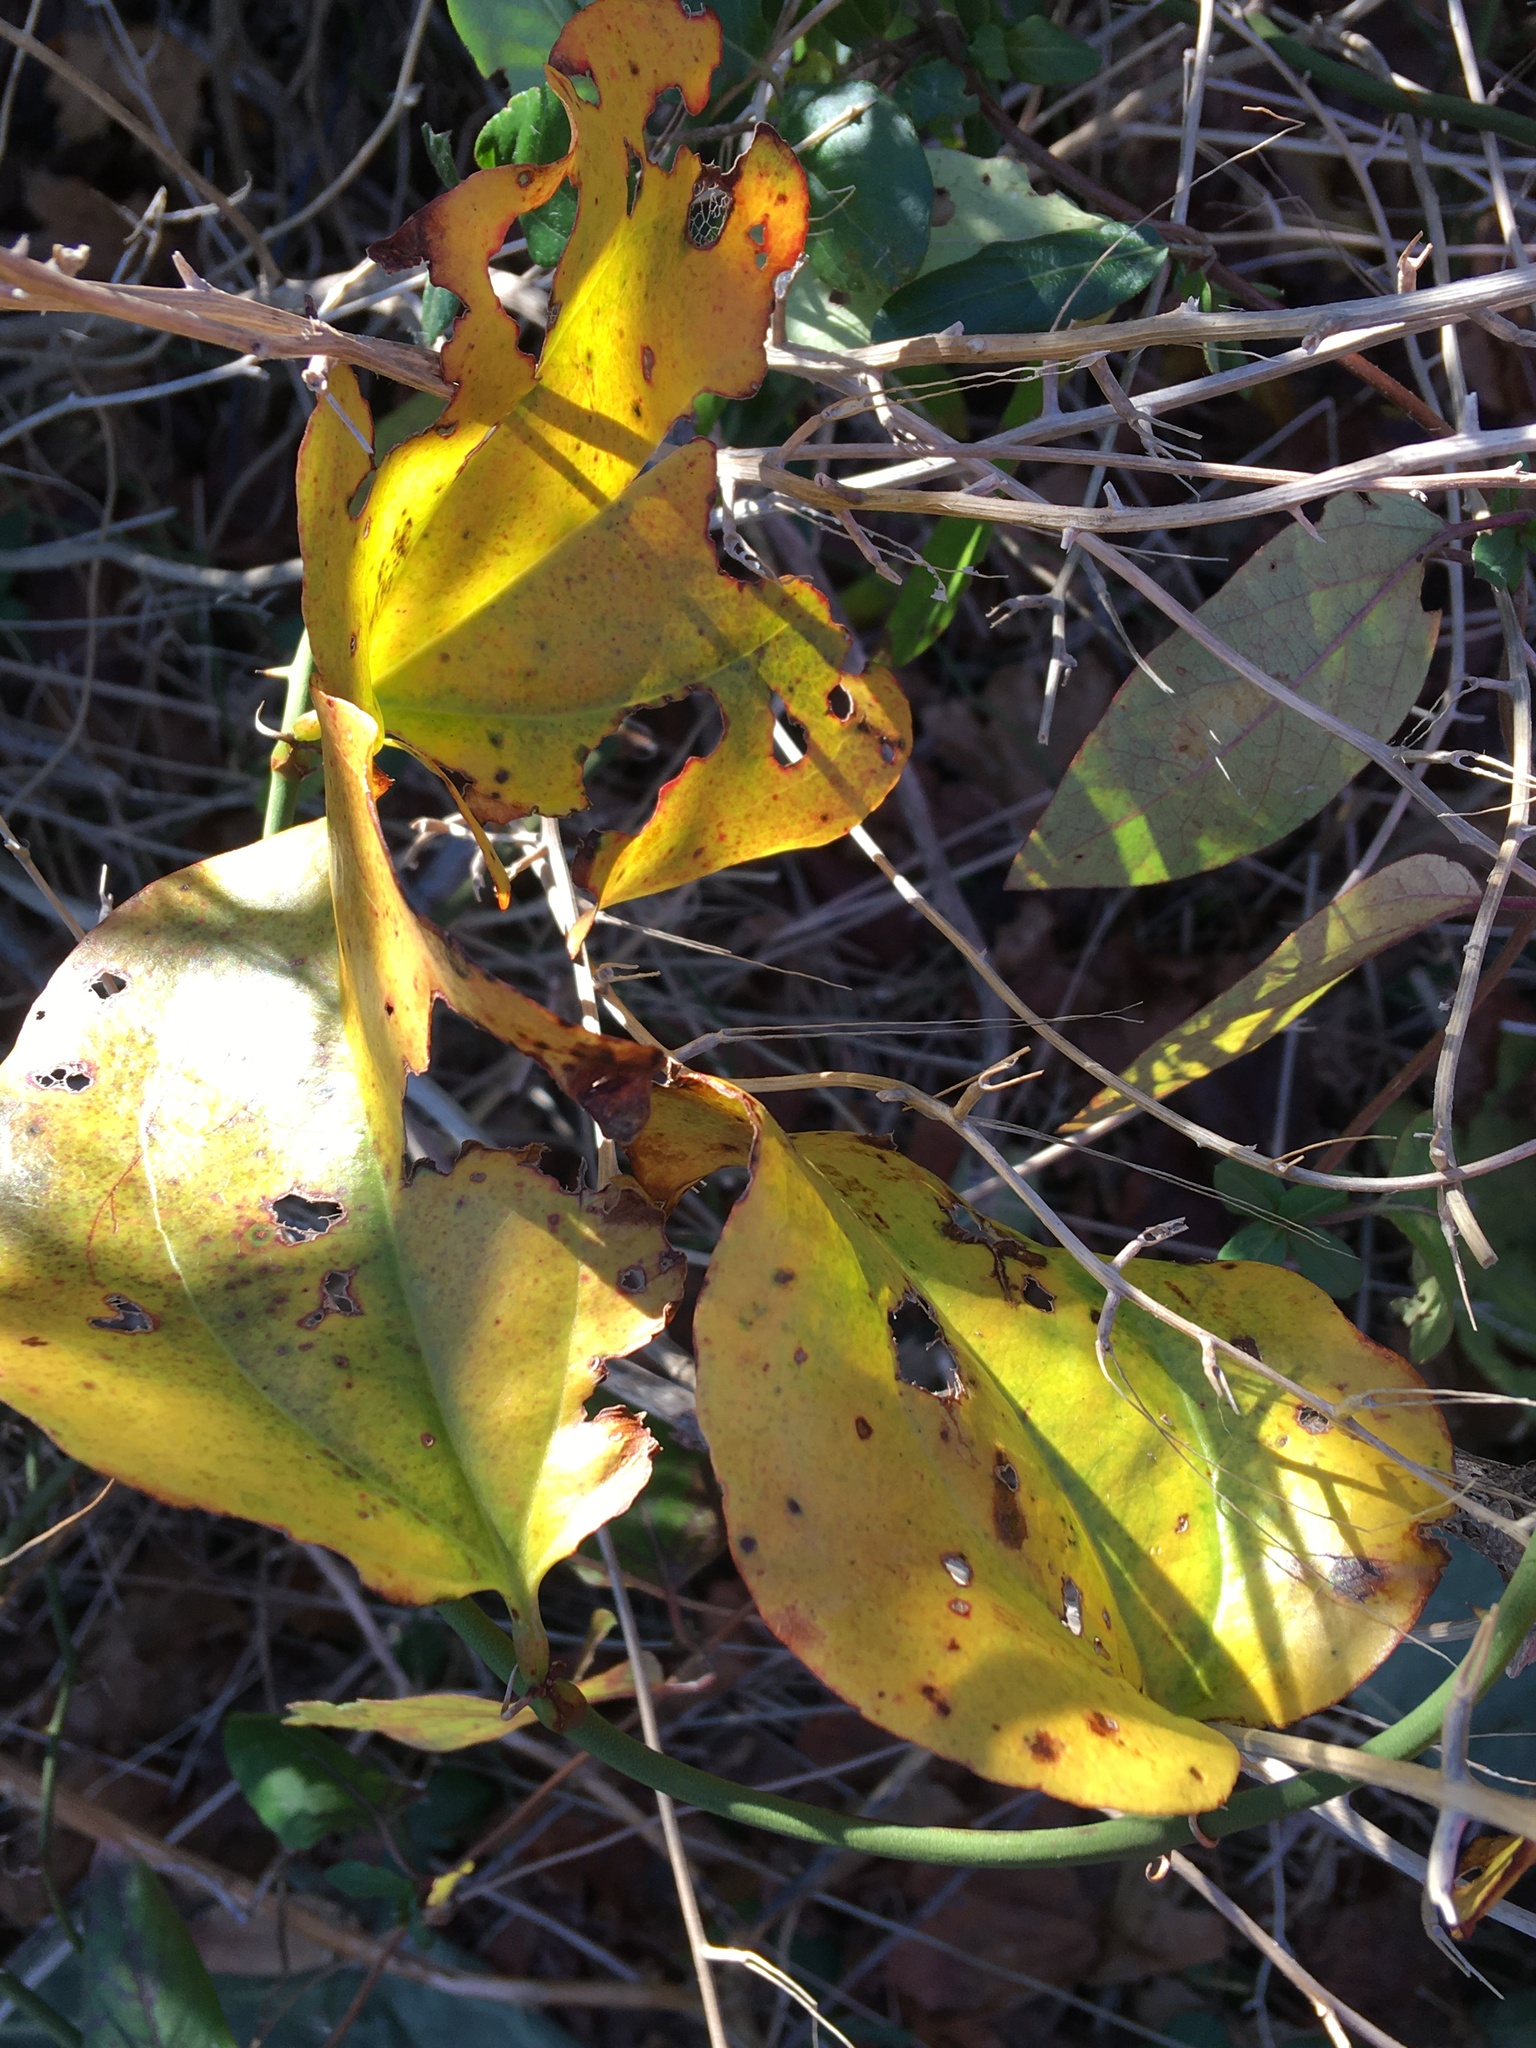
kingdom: Plantae
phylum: Tracheophyta
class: Liliopsida
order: Liliales
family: Smilacaceae
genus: Smilax
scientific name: Smilax rotundifolia
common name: Bullbriar
